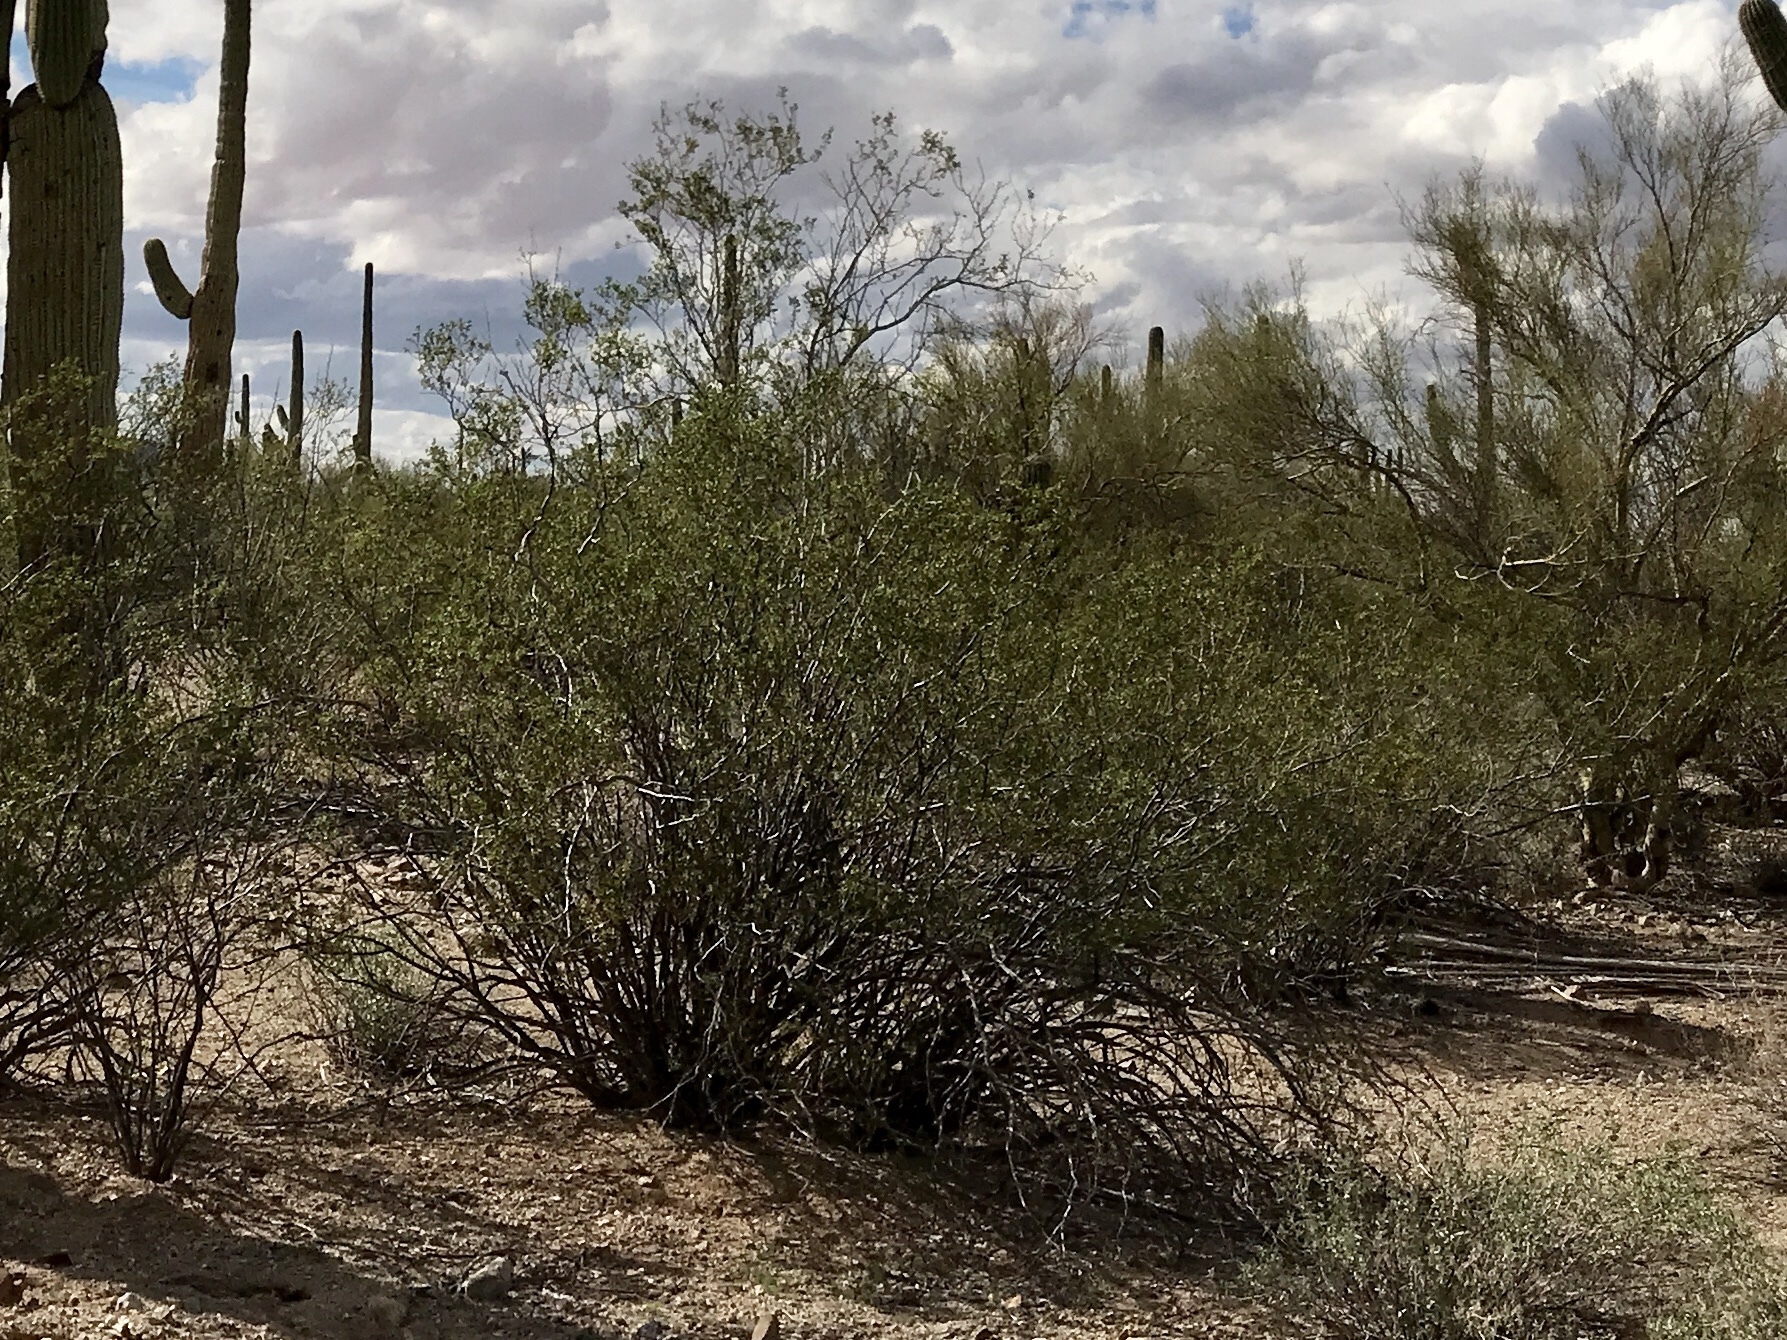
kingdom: Plantae
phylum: Tracheophyta
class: Magnoliopsida
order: Zygophyllales
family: Zygophyllaceae
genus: Larrea
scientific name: Larrea tridentata
